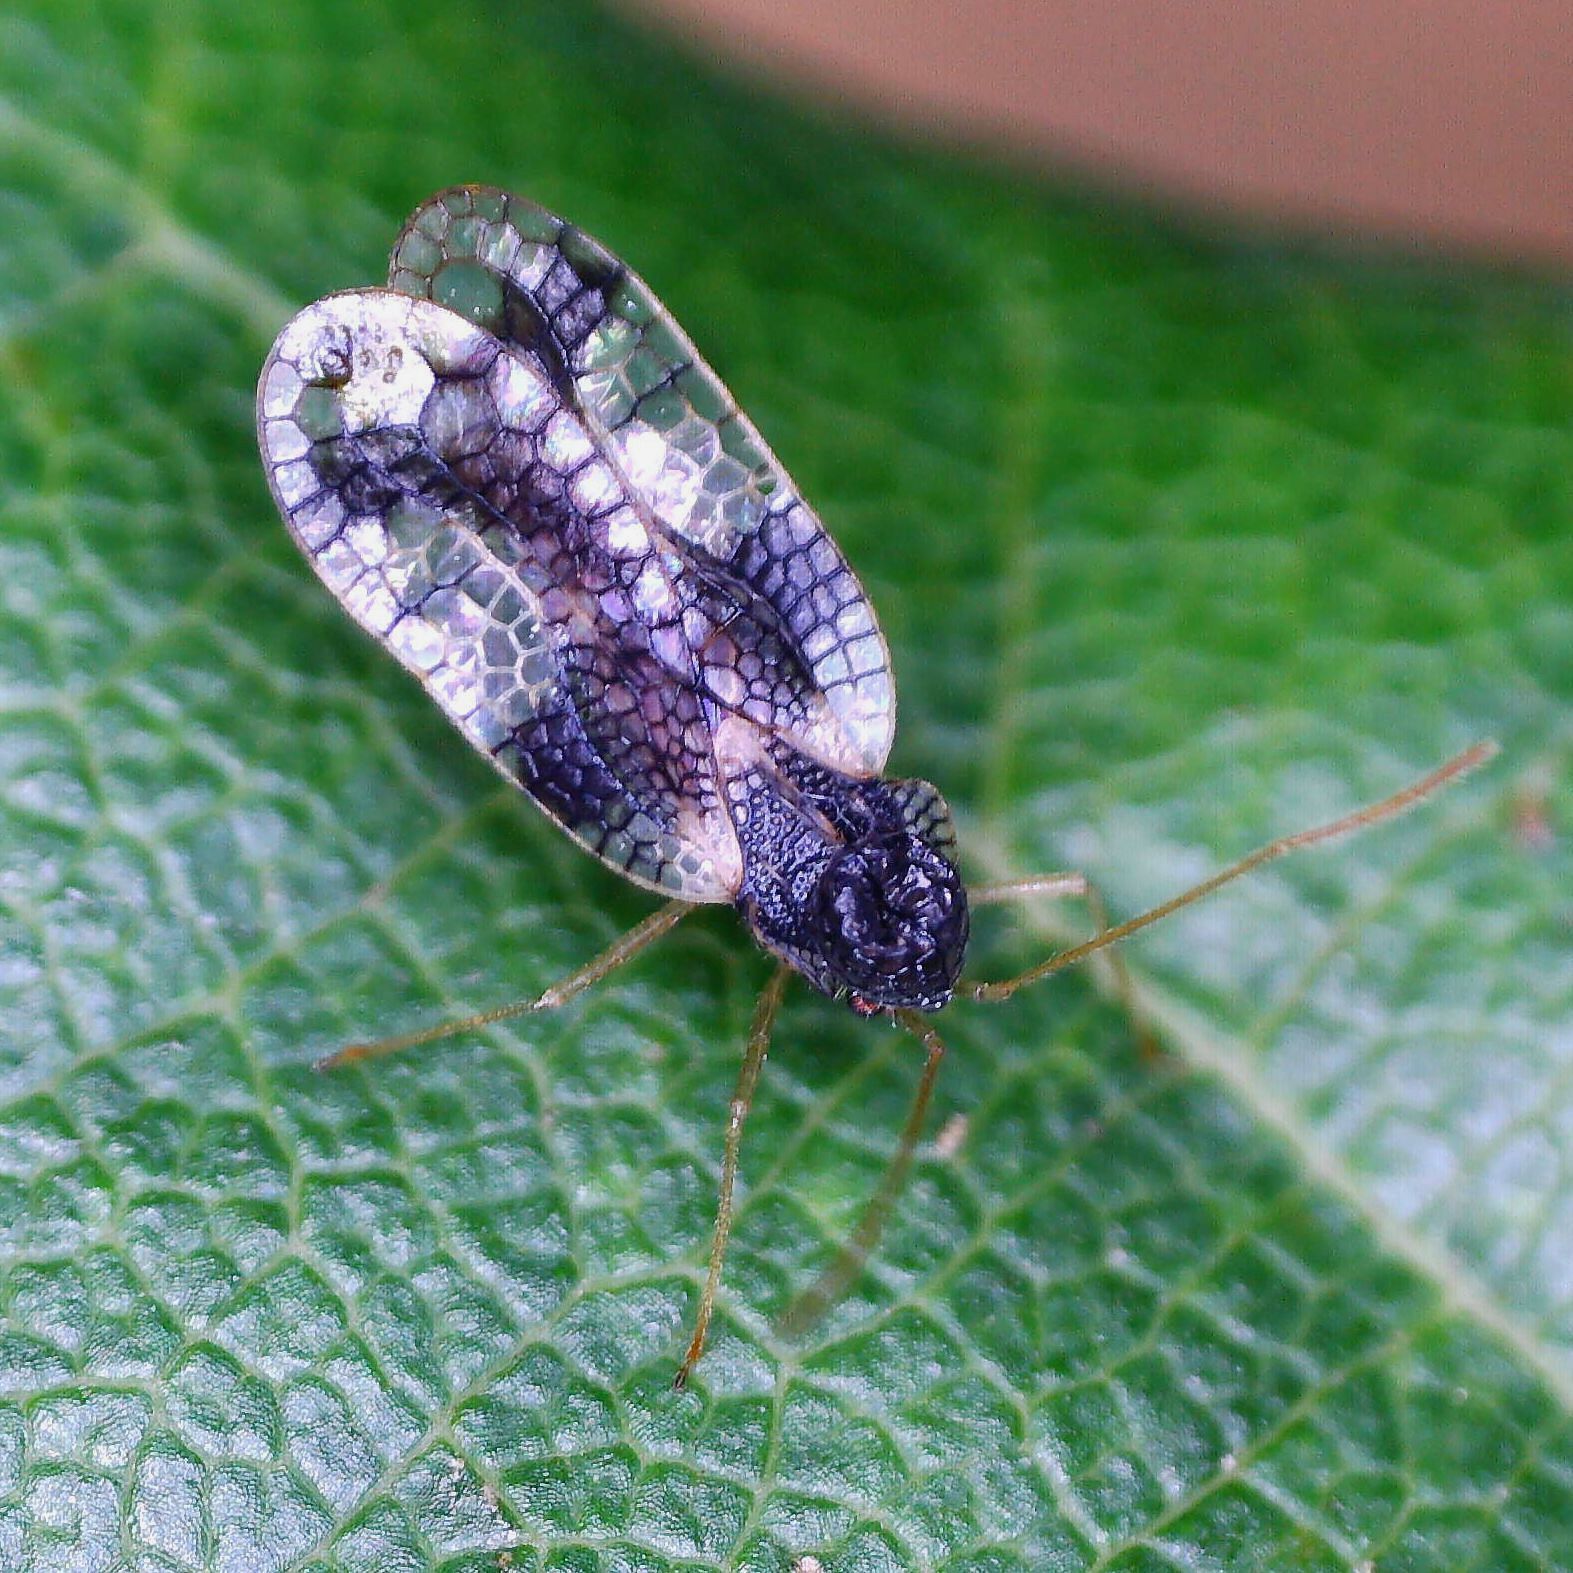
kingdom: Animalia
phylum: Arthropoda
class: Insecta
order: Hemiptera
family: Tingidae
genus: Stephanitis
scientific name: Stephanitis takeyai
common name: Andromeda lacebug
